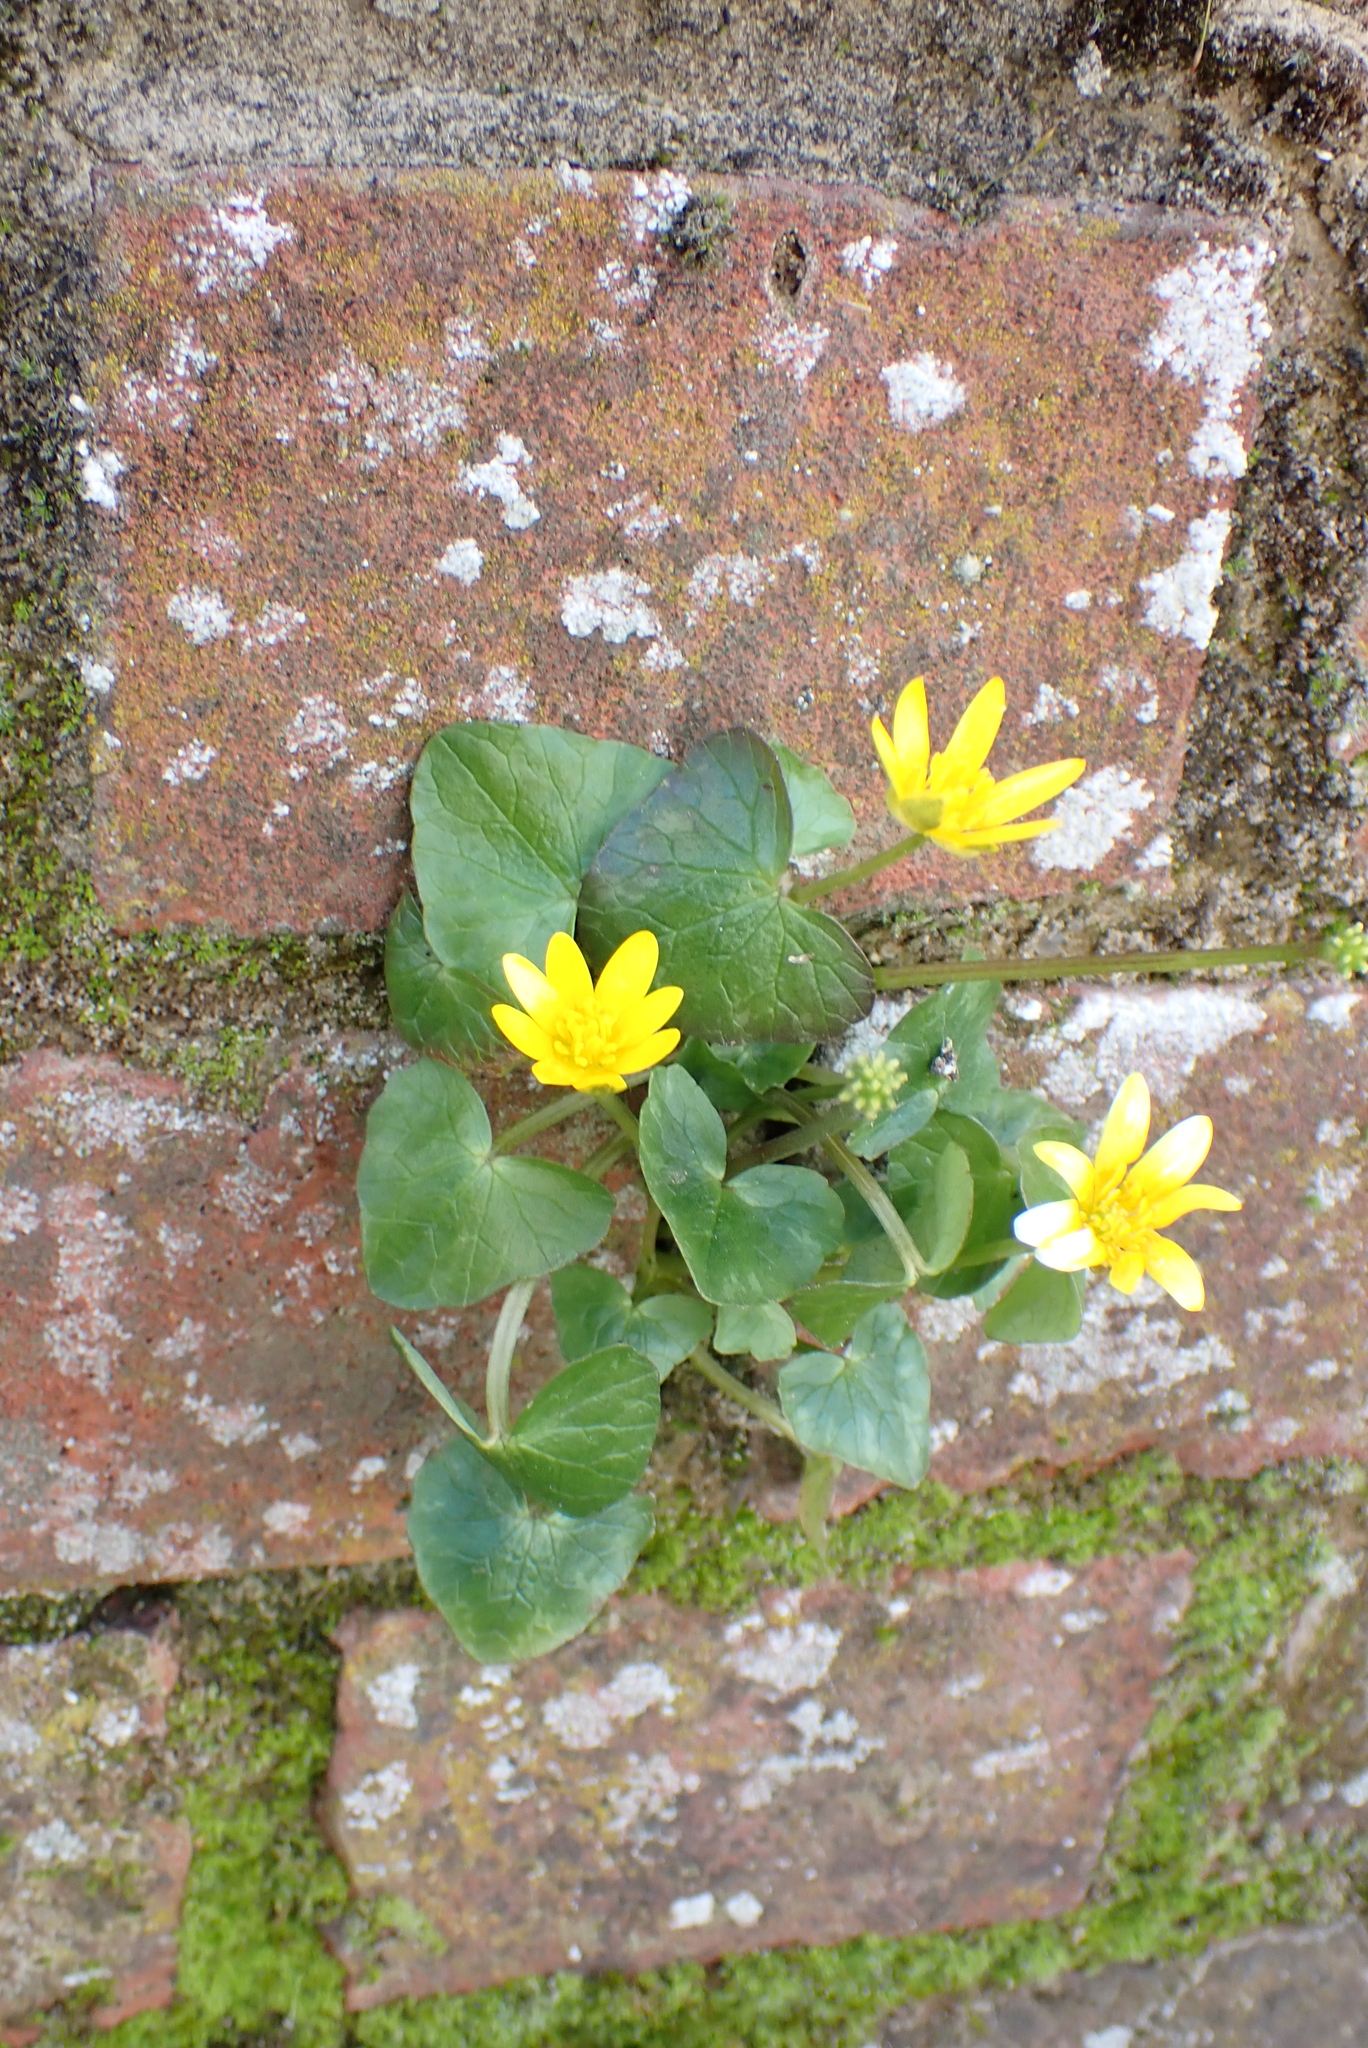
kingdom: Plantae
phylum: Tracheophyta
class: Magnoliopsida
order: Ranunculales
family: Ranunculaceae
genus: Ficaria
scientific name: Ficaria verna
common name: Lesser celandine
